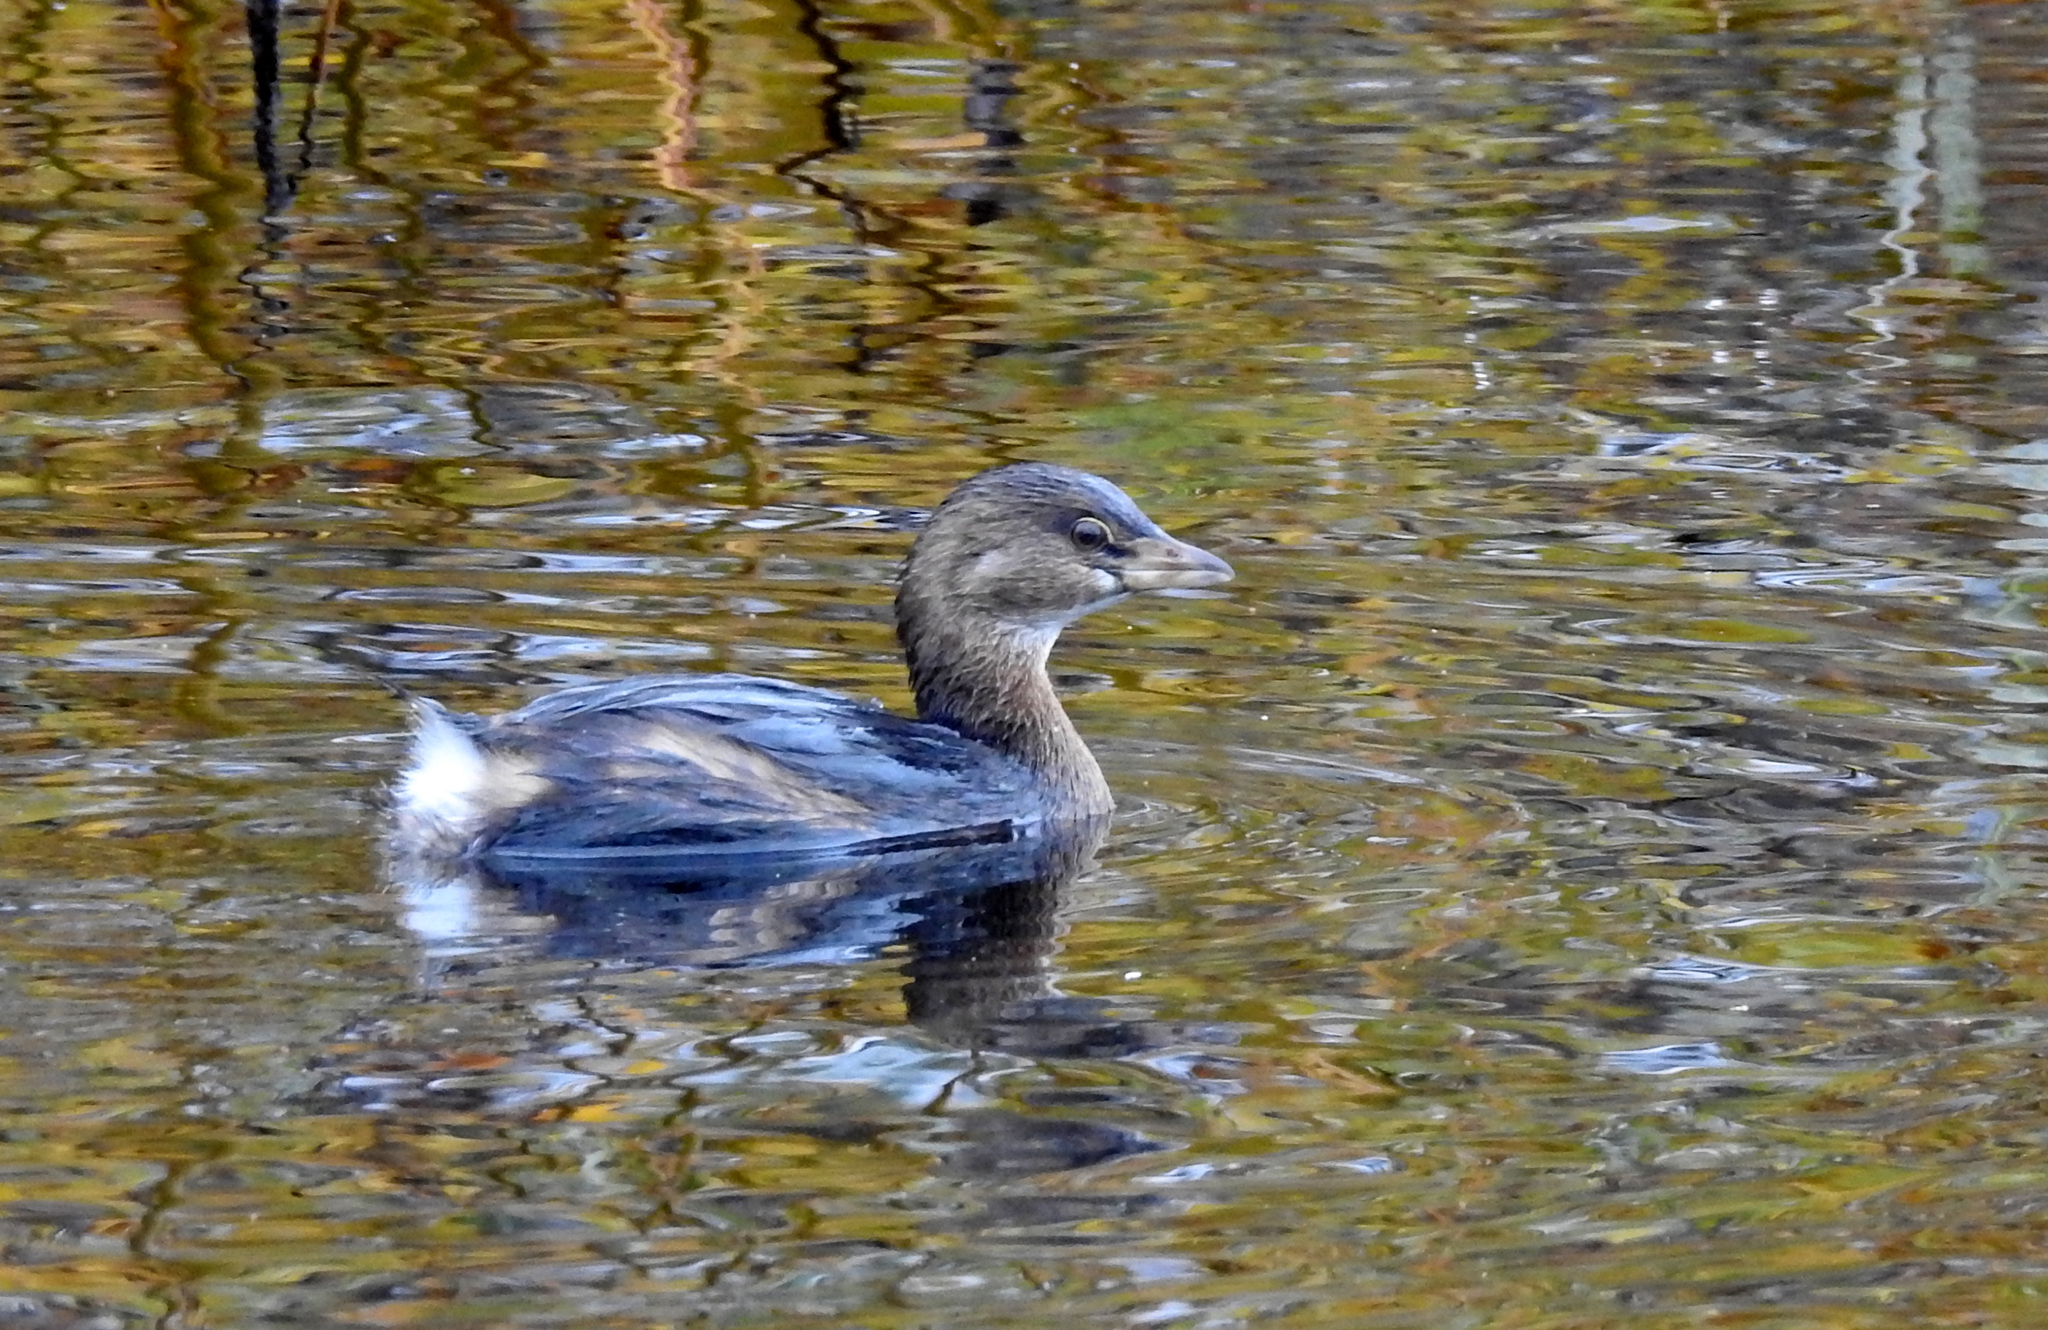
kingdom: Animalia
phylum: Chordata
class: Aves
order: Podicipediformes
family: Podicipedidae
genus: Podilymbus
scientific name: Podilymbus podiceps
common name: Pied-billed grebe
